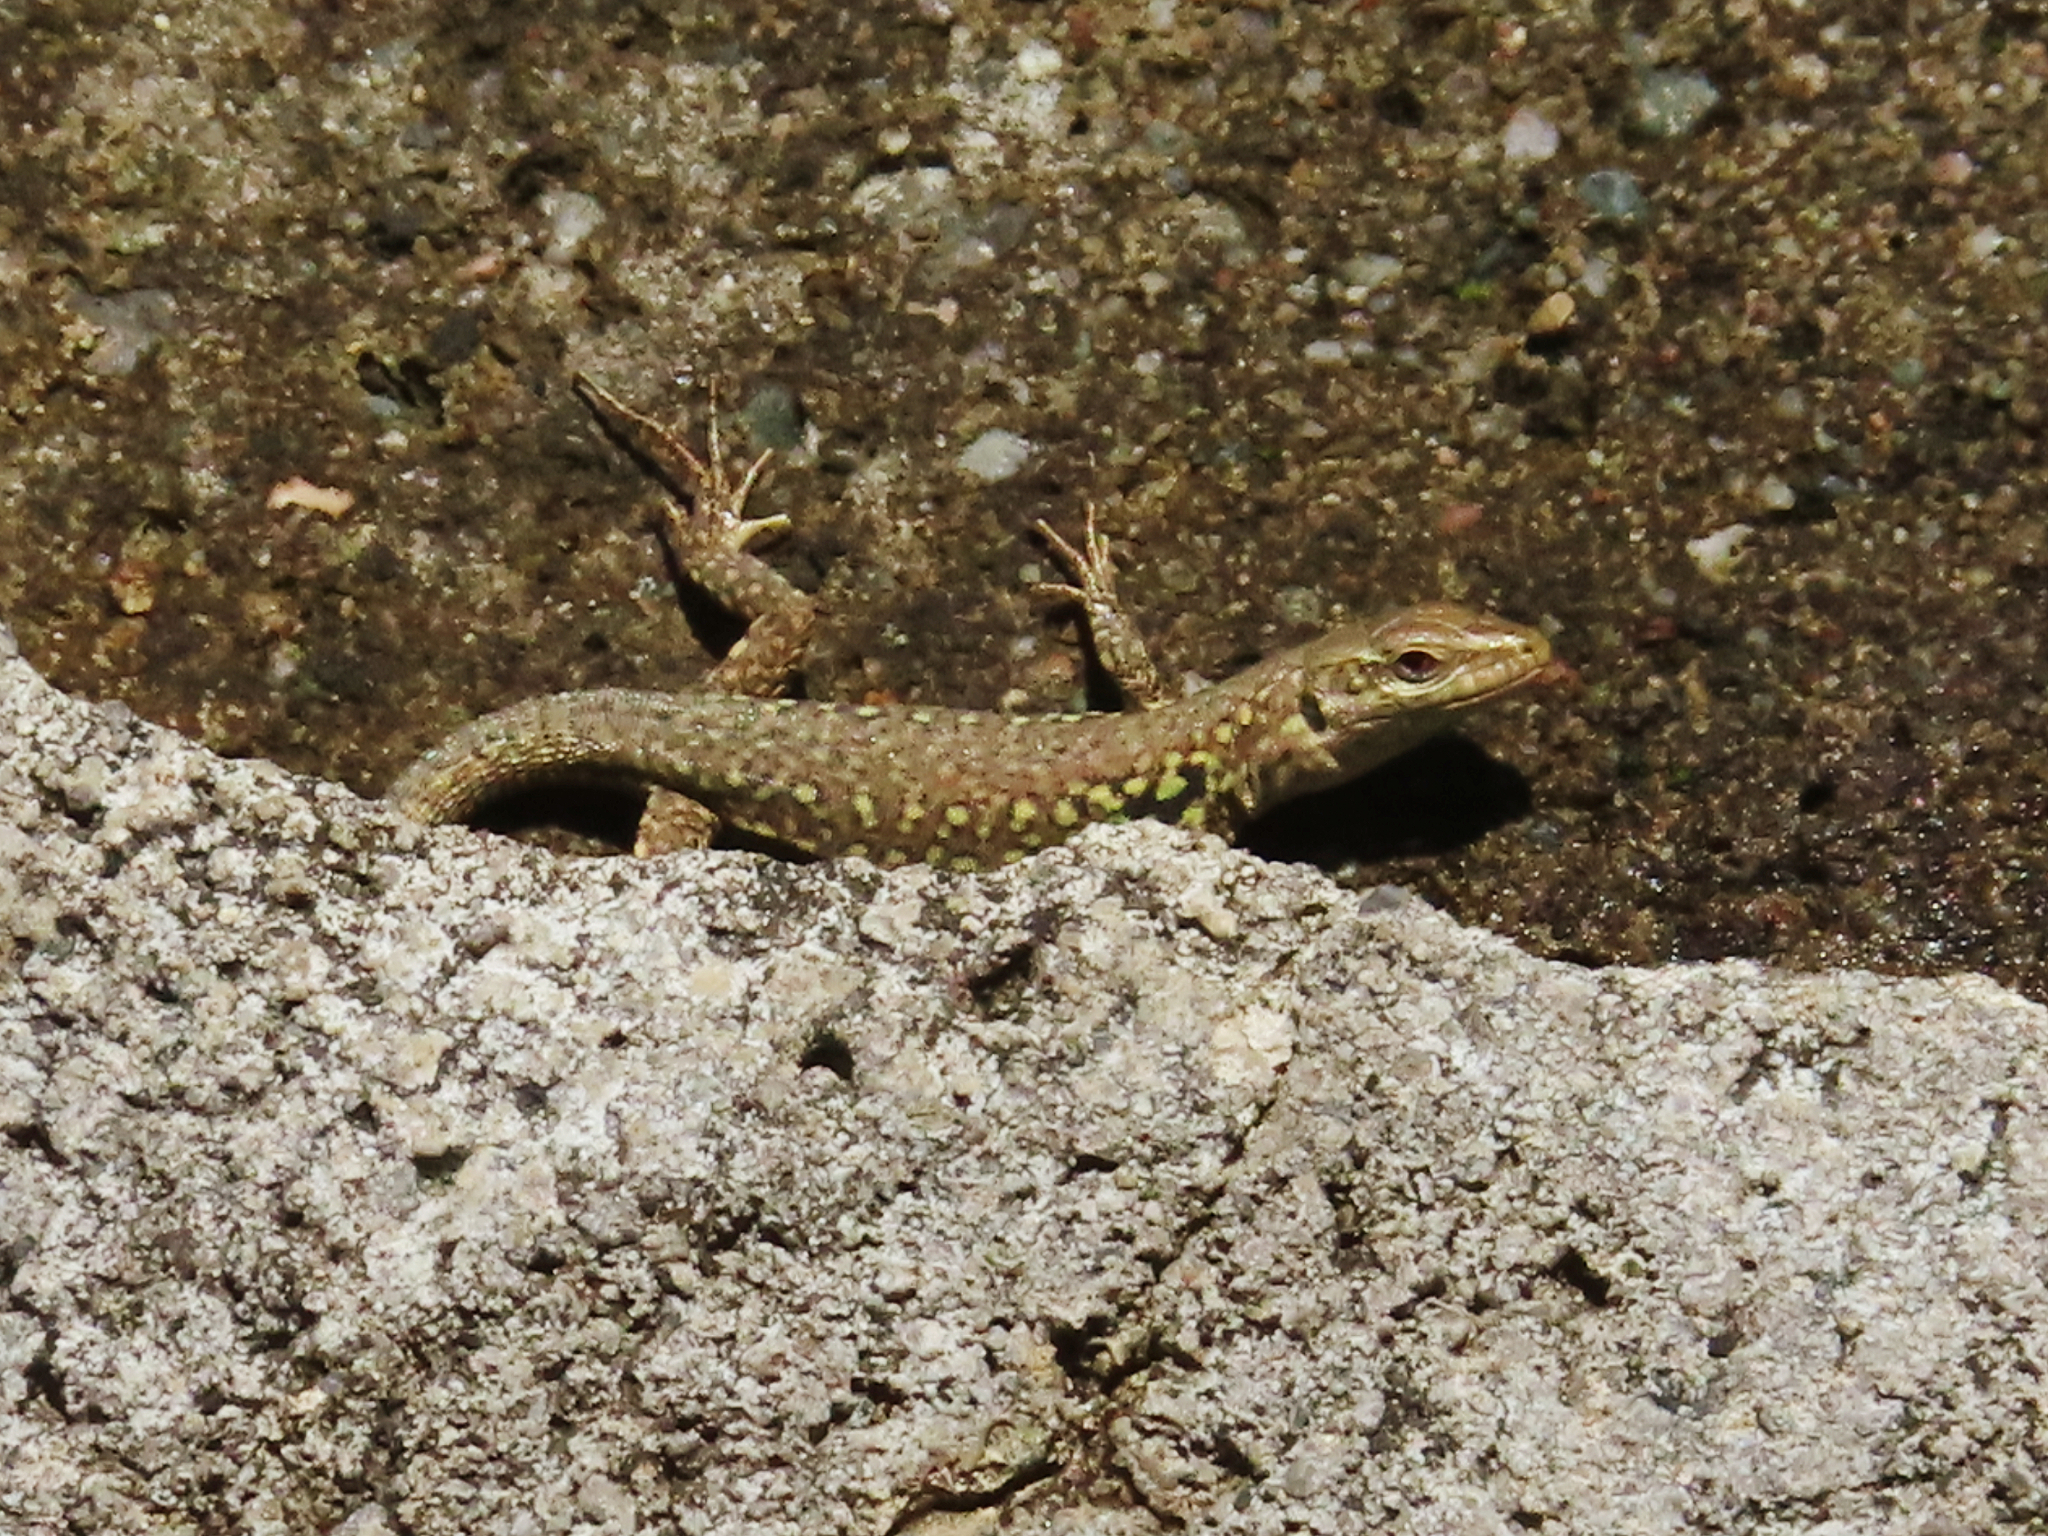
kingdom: Animalia
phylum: Chordata
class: Squamata
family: Lacertidae
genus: Podarcis
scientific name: Podarcis siculus
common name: Italian wall lizard
